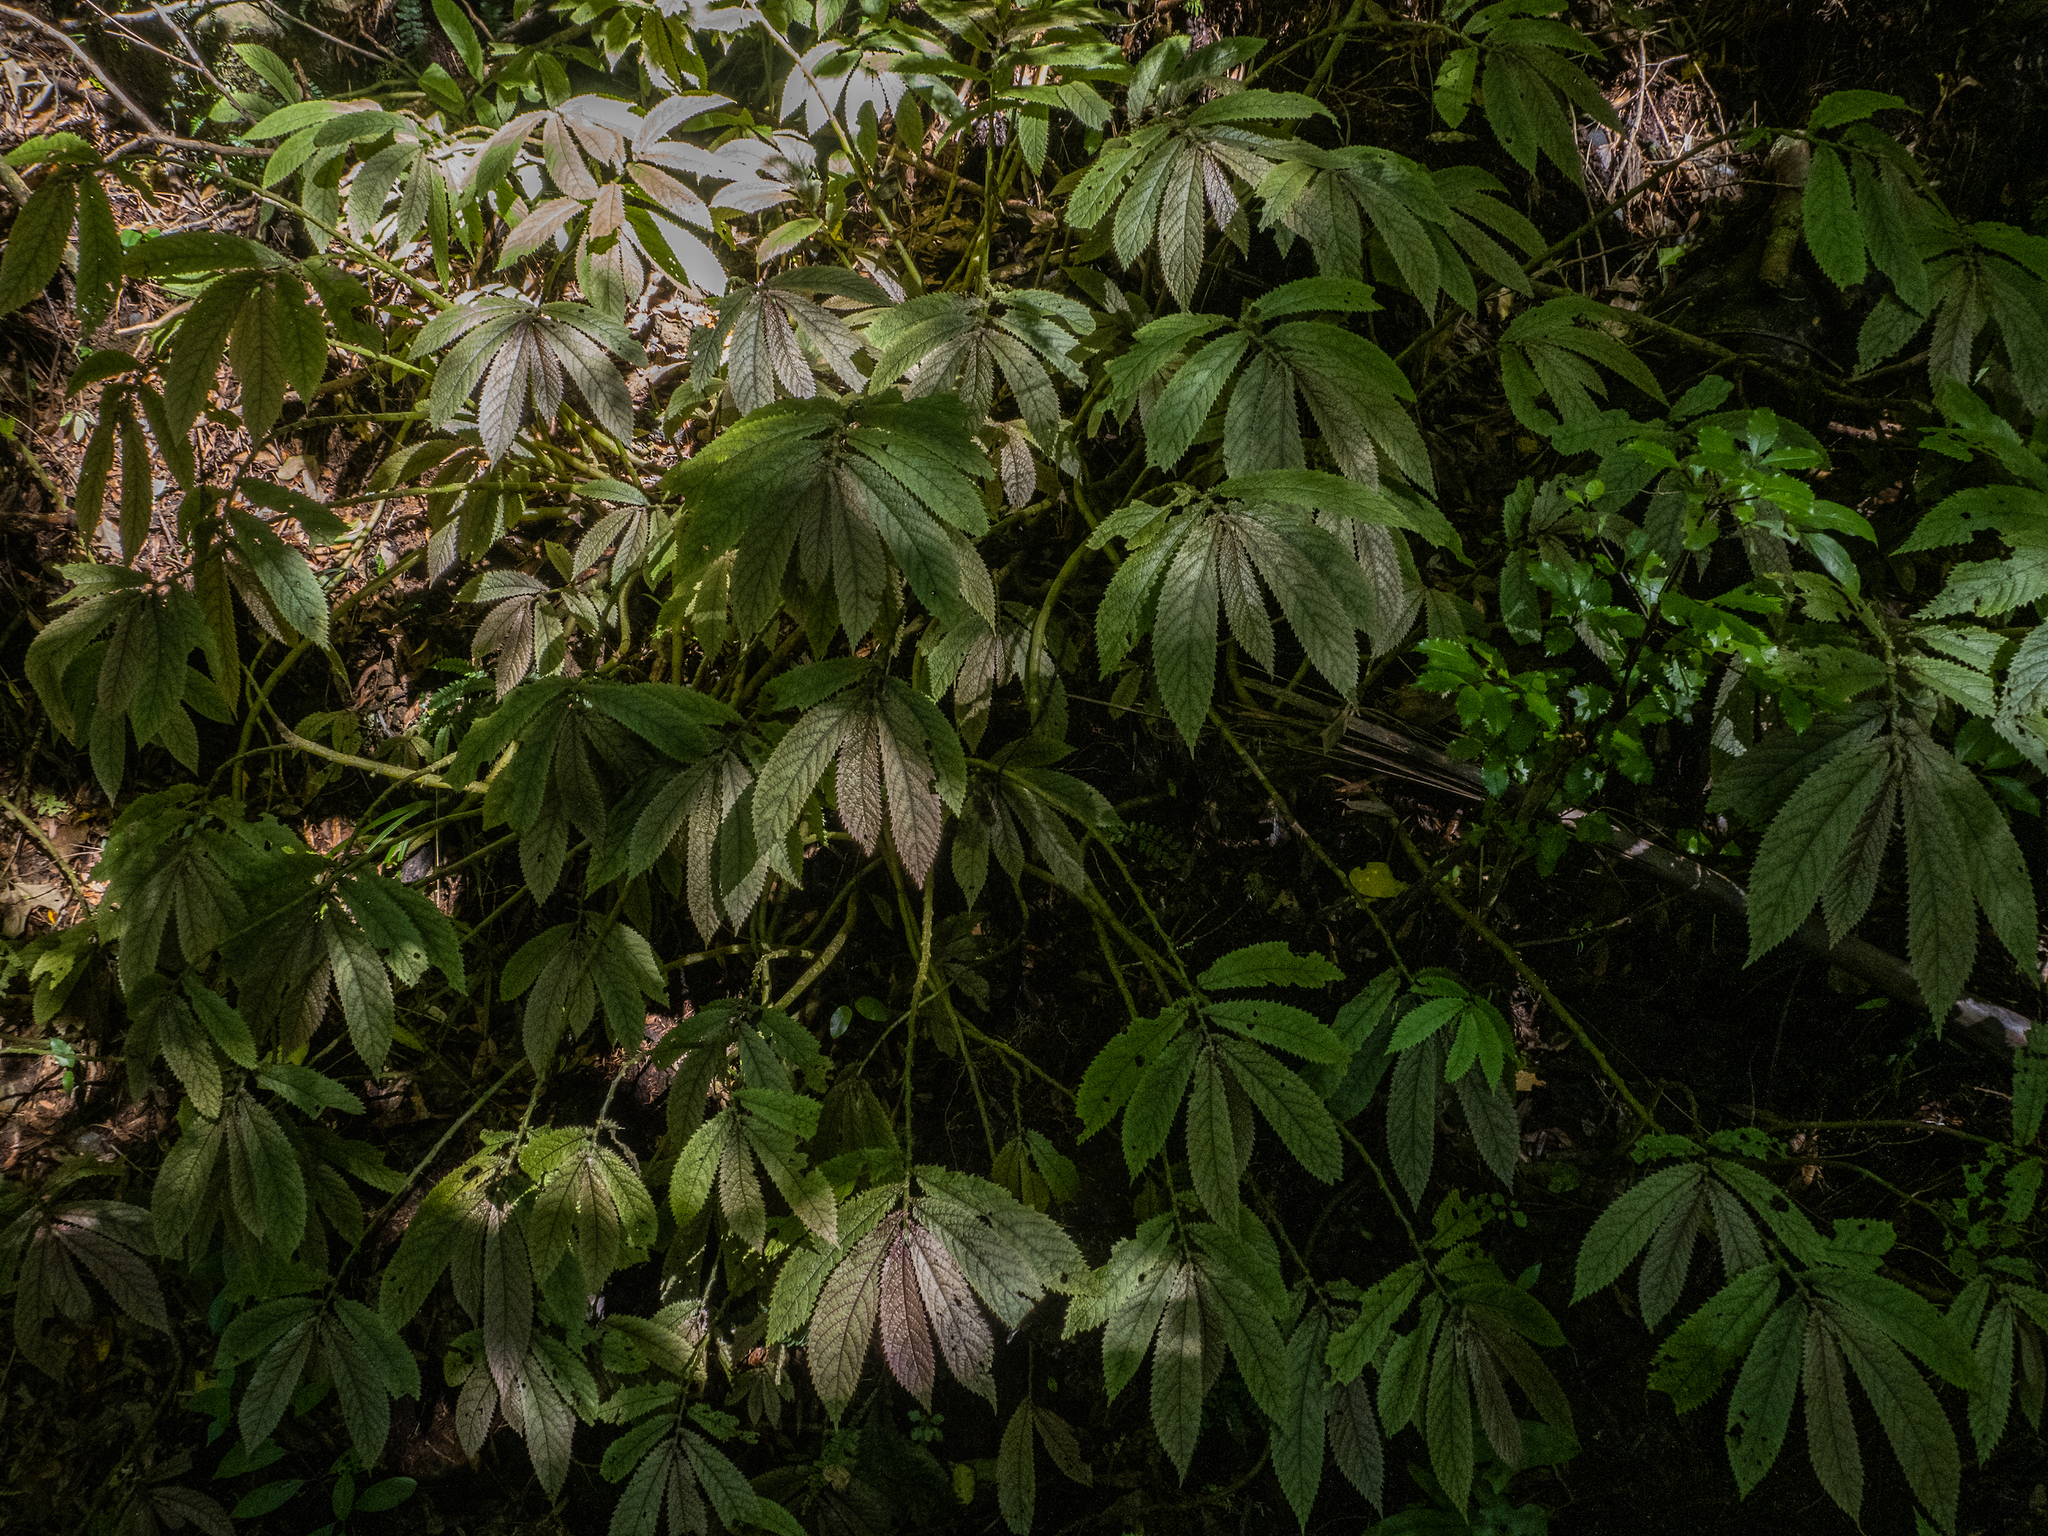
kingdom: Plantae
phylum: Tracheophyta
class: Magnoliopsida
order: Rosales
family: Urticaceae
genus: Elatostema
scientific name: Elatostema rugosum
